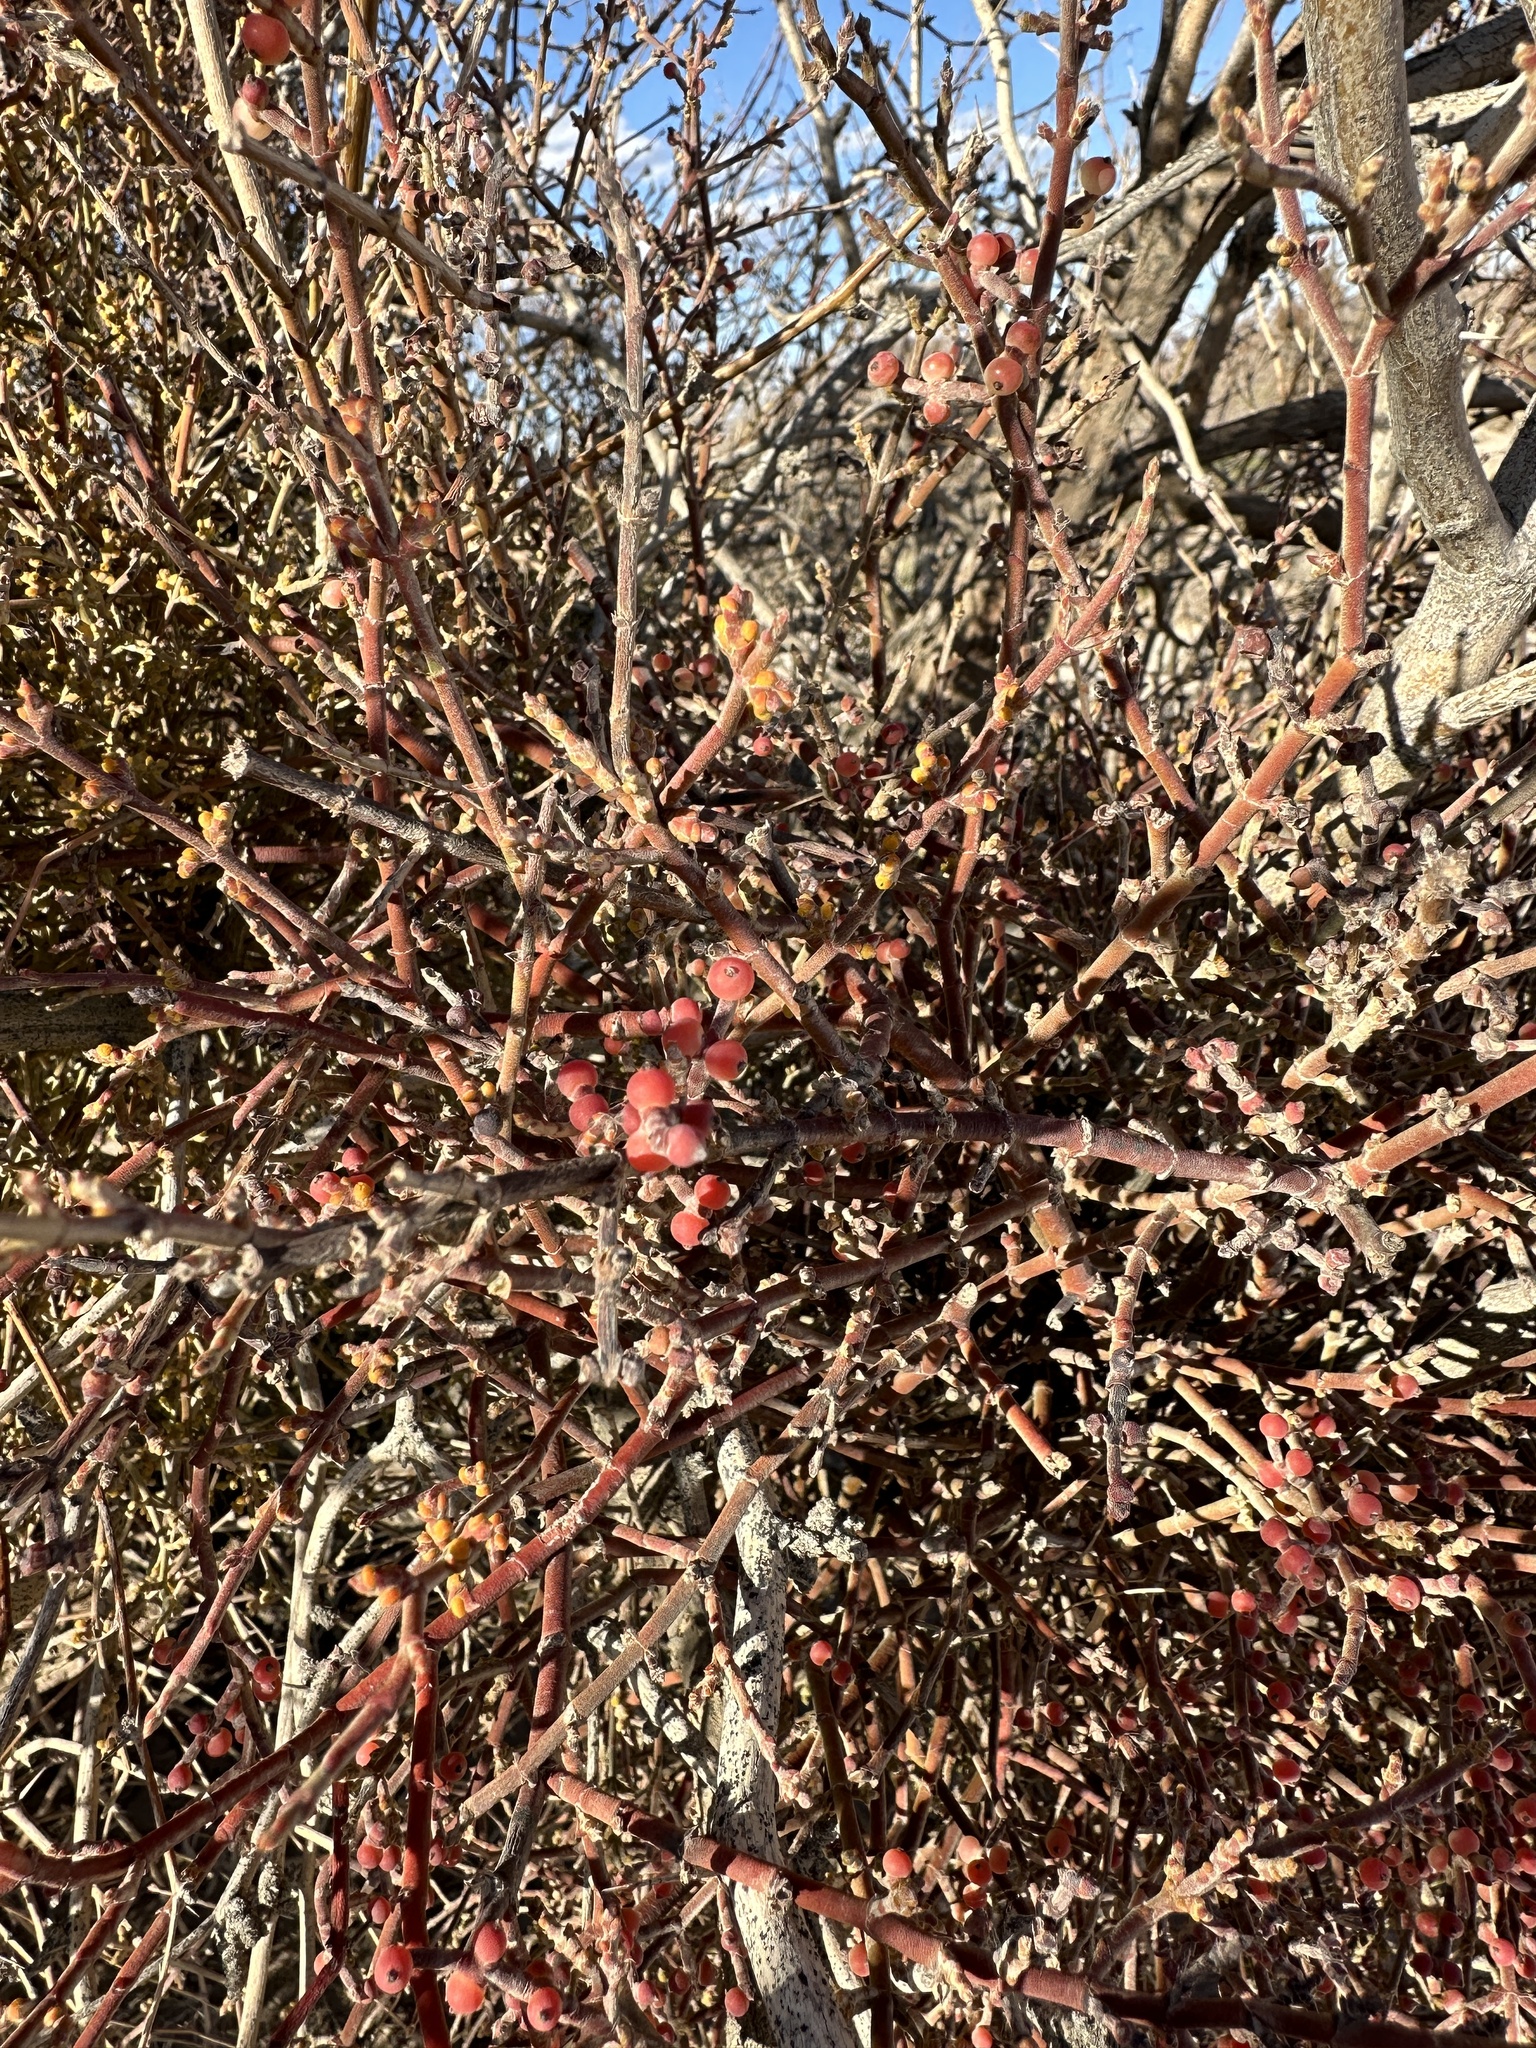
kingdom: Plantae
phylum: Tracheophyta
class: Magnoliopsida
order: Santalales
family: Viscaceae
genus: Phoradendron
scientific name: Phoradendron californicum
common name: Acacia mistletoe
